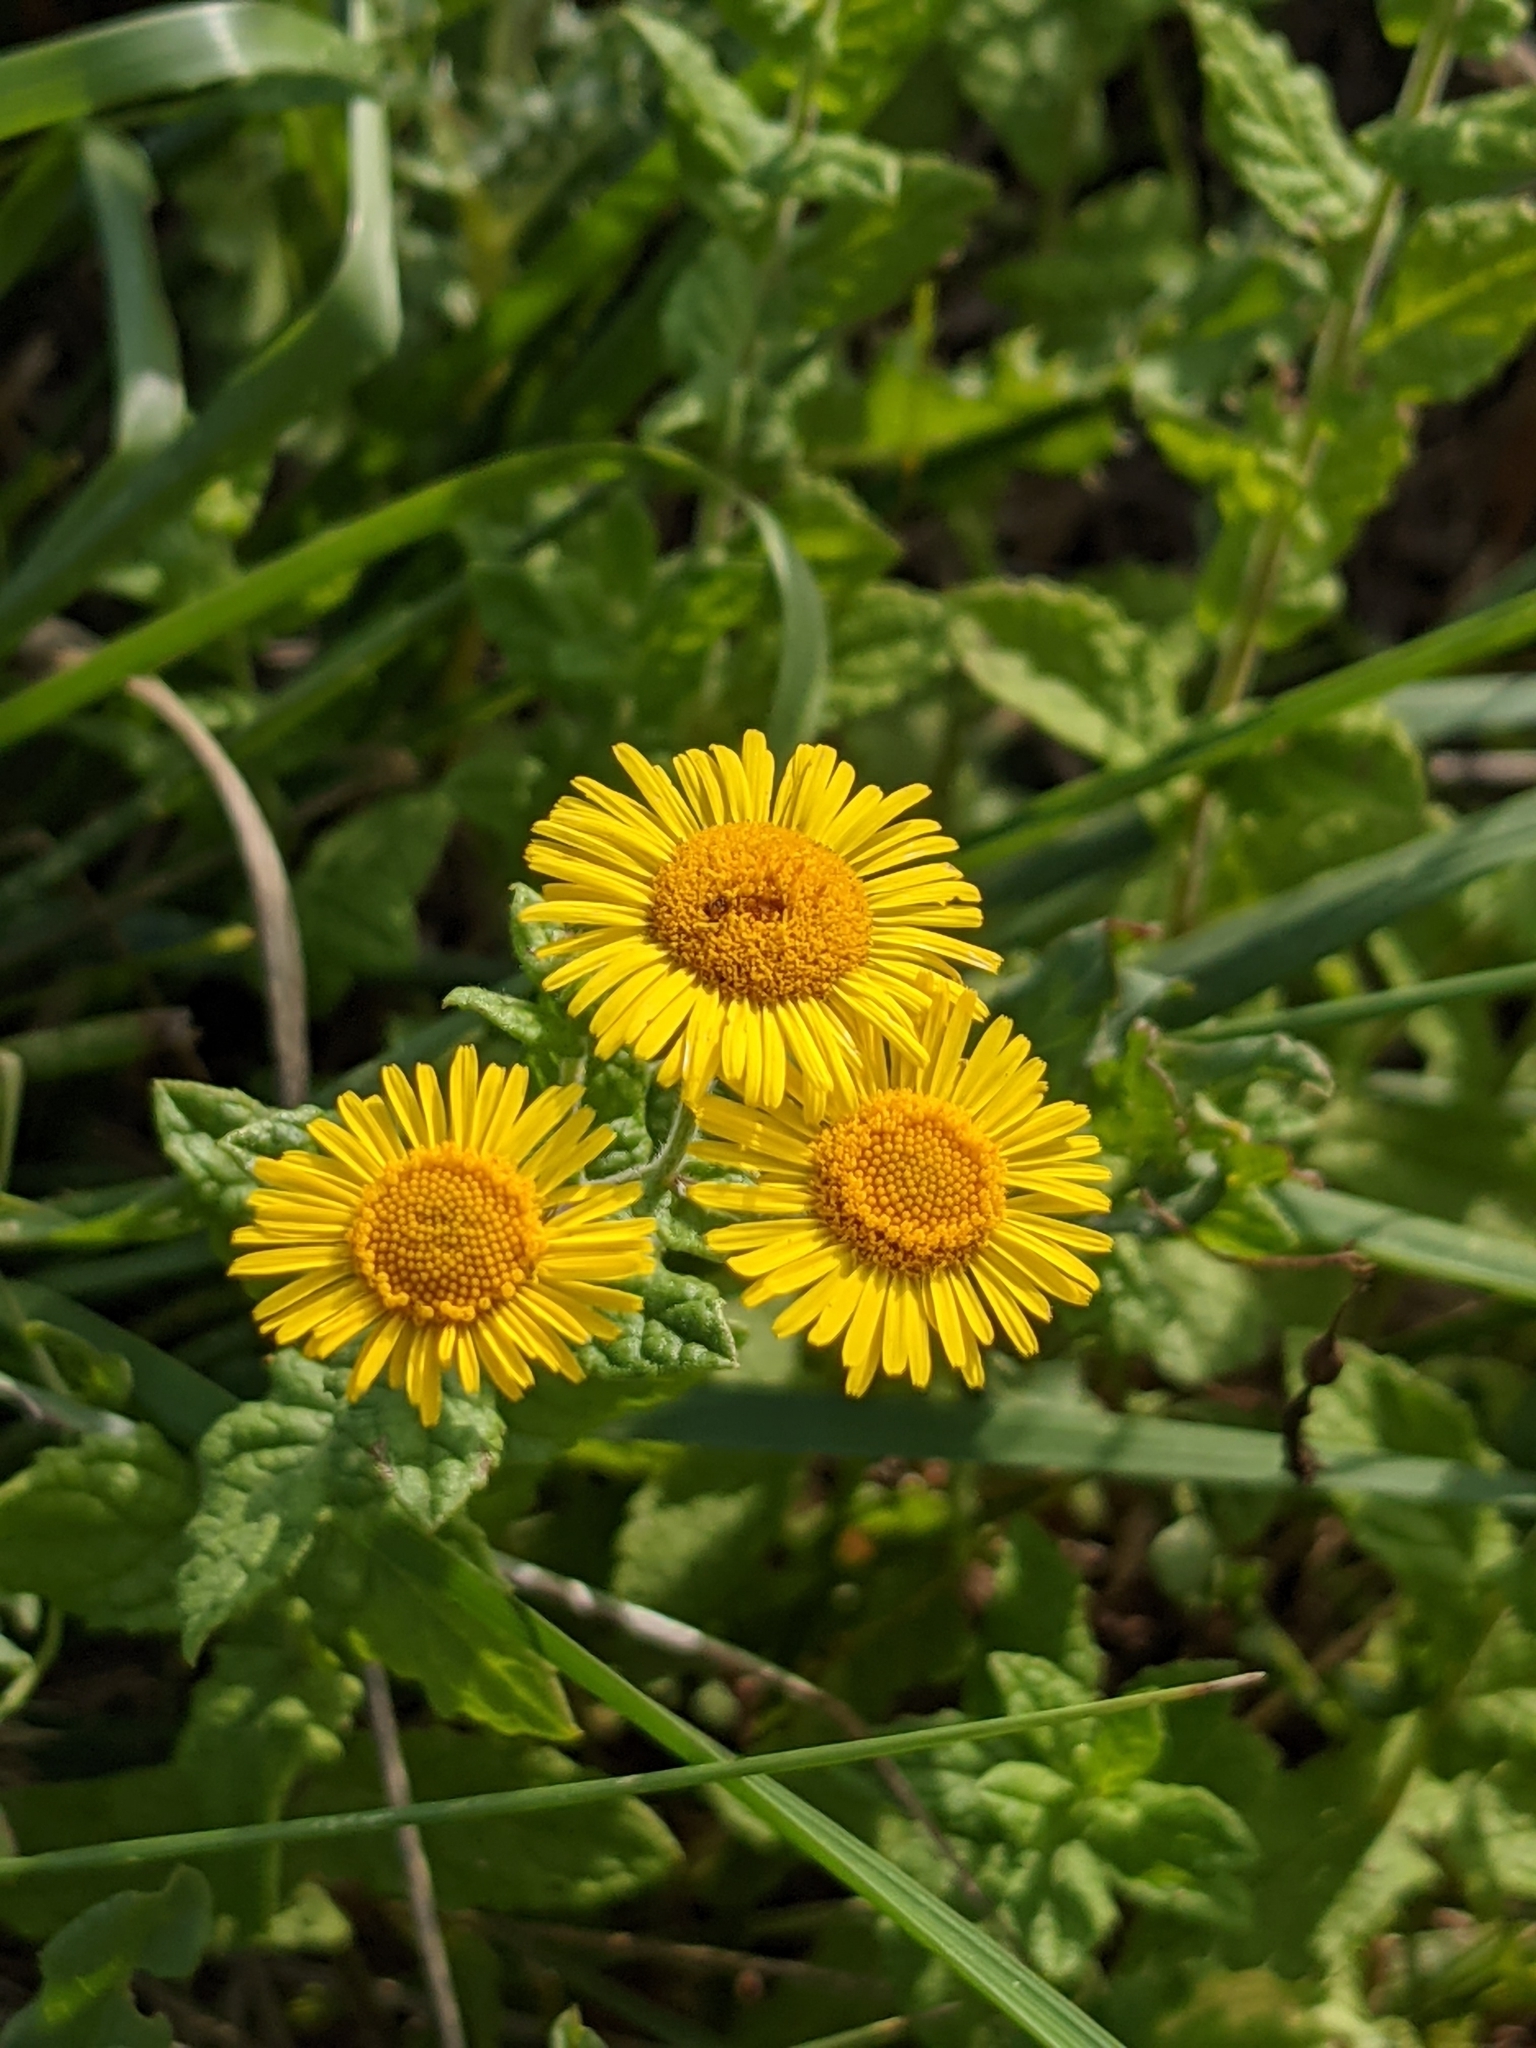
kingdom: Plantae
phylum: Tracheophyta
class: Magnoliopsida
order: Asterales
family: Asteraceae
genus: Pulicaria
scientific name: Pulicaria dysenterica
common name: Common fleabane
